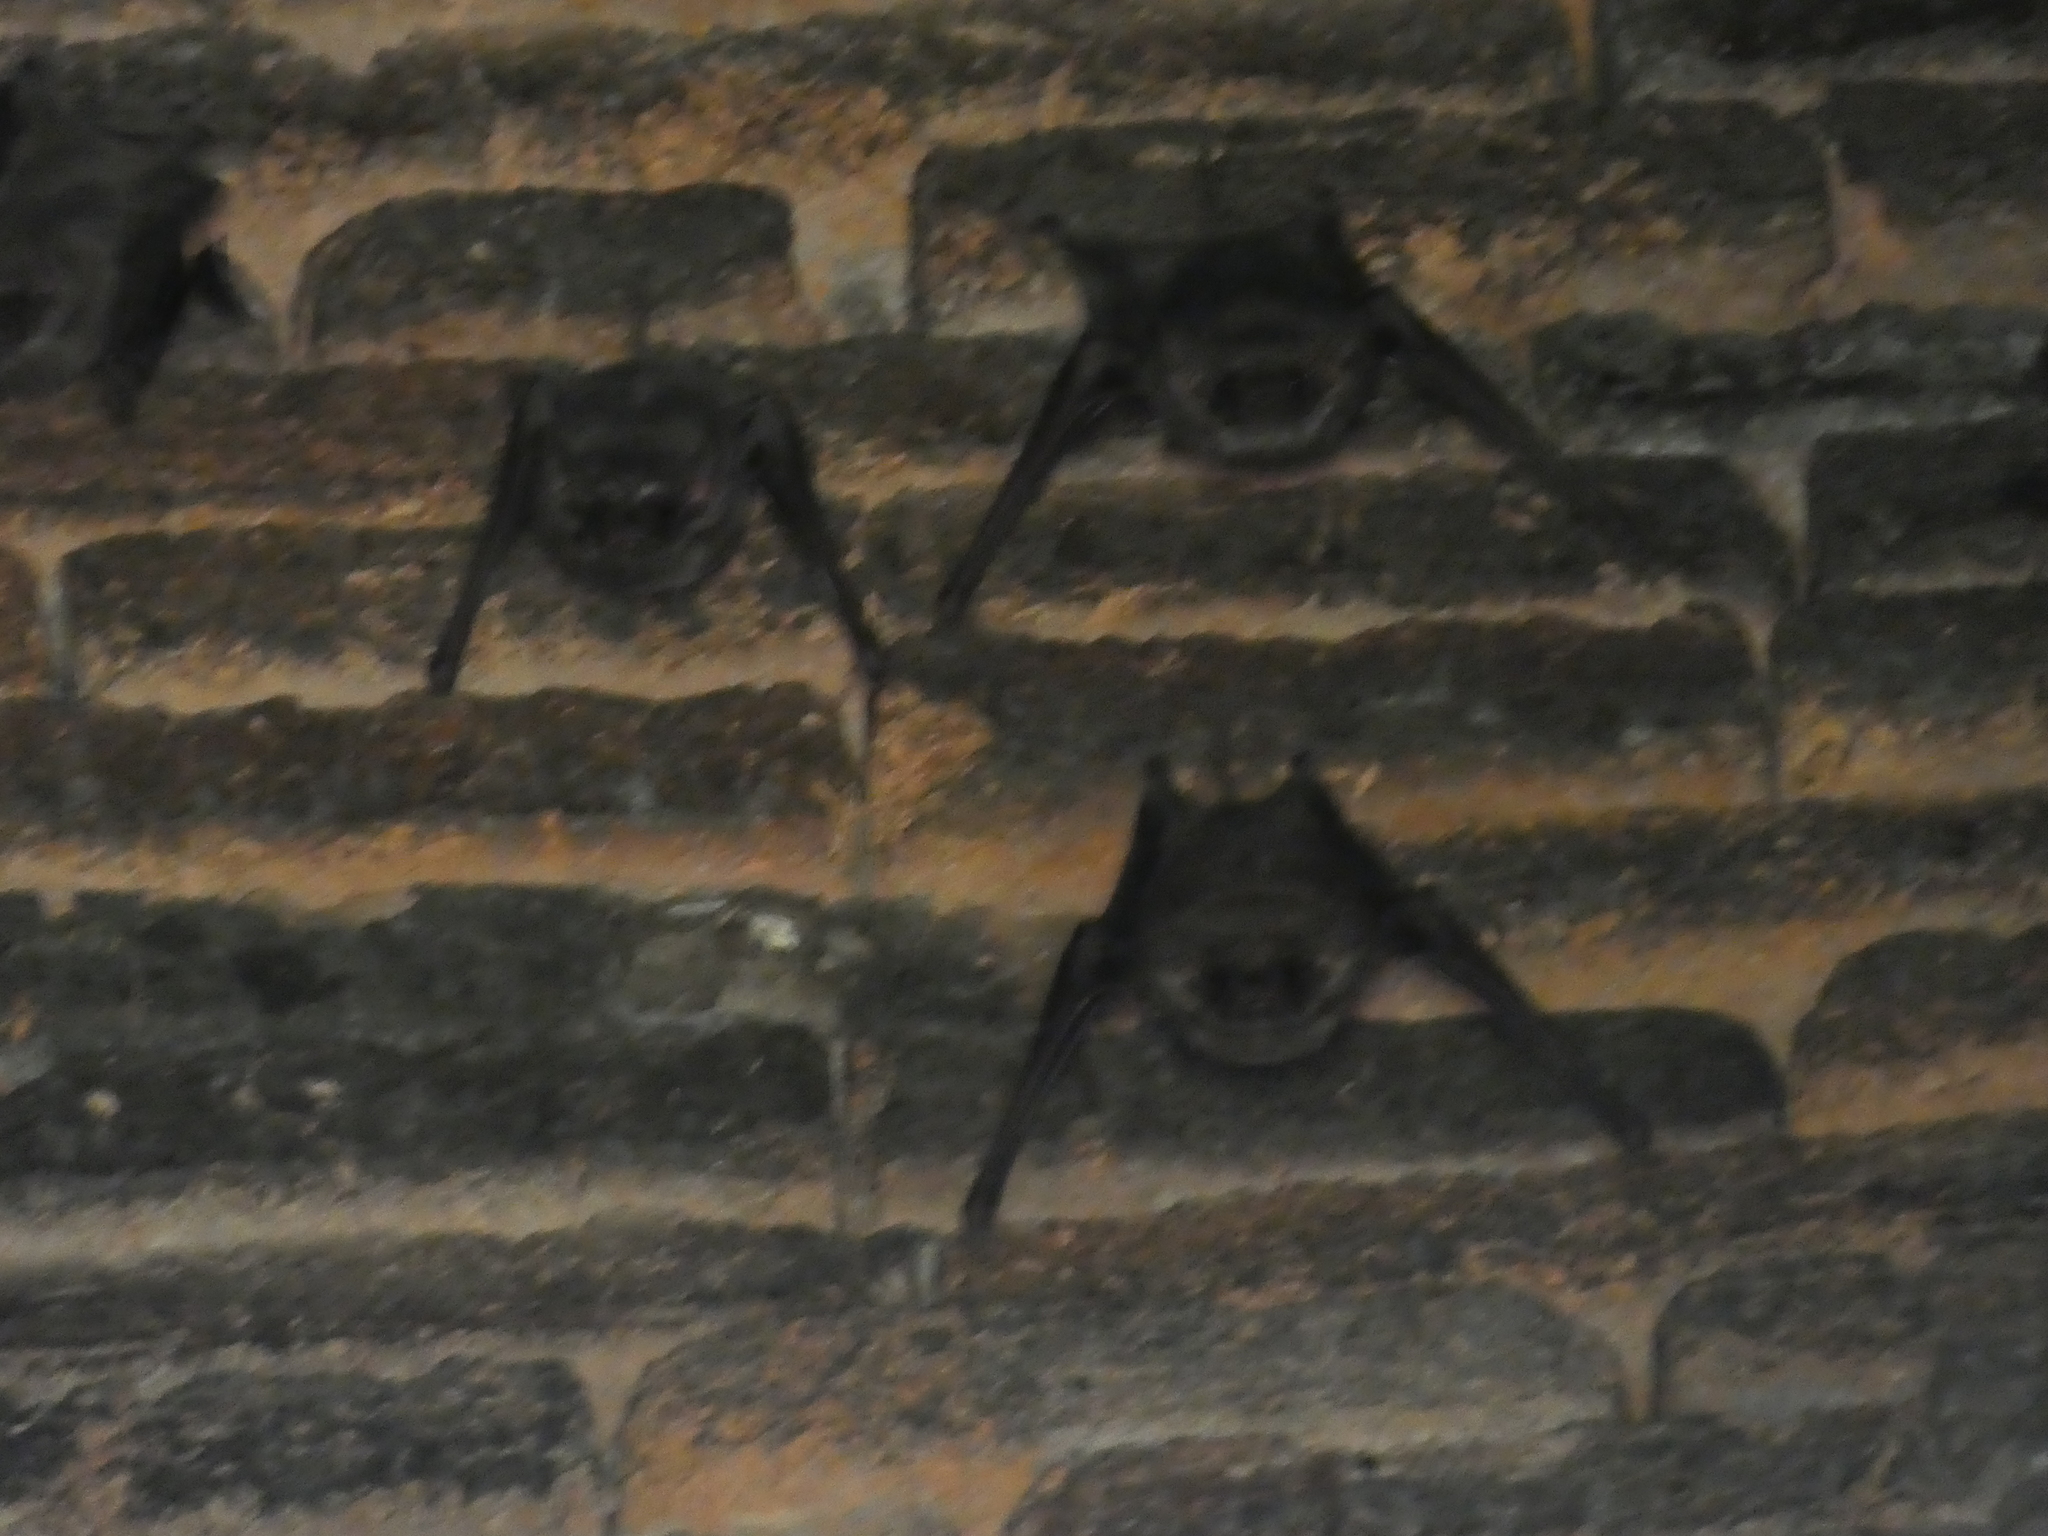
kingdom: Animalia
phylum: Chordata
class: Mammalia
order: Chiroptera
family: Emballonuridae
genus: Taphozous
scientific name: Taphozous melanopogon
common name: Black-bearded tomb bat
